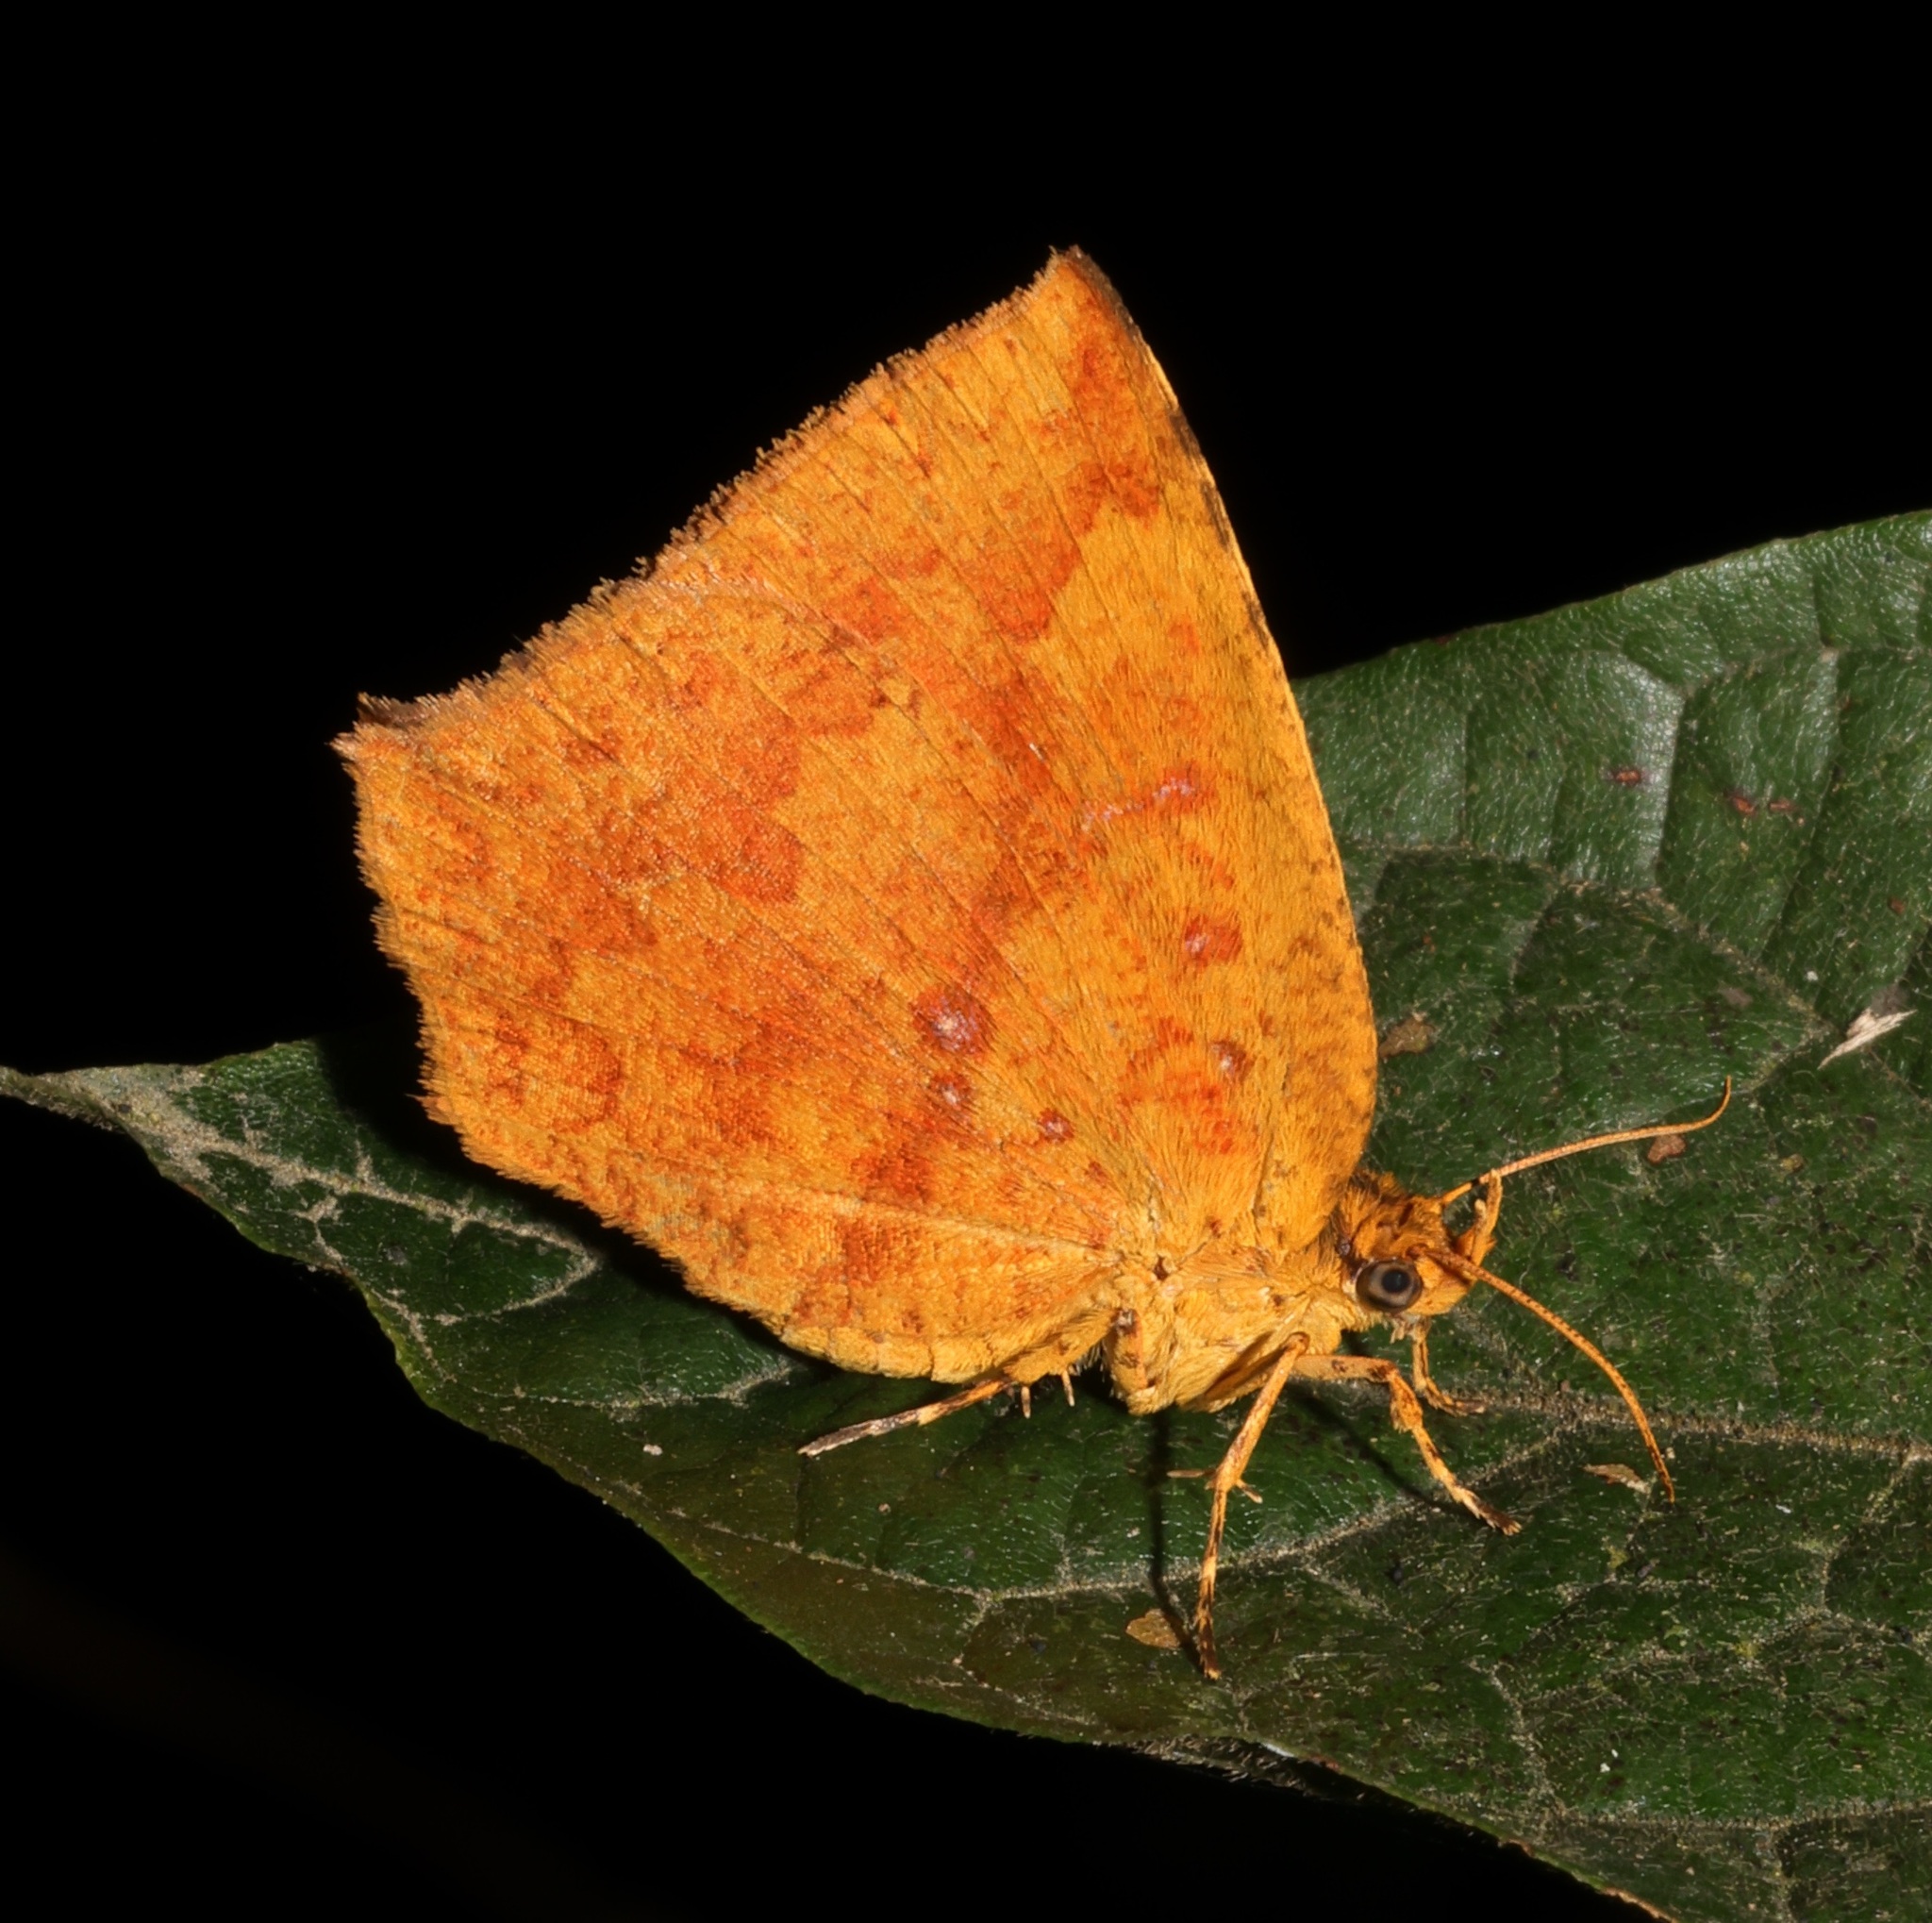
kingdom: Animalia
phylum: Arthropoda
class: Insecta
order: Lepidoptera
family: Callidulidae
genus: Tetragonus
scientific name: Tetragonus catamitus
